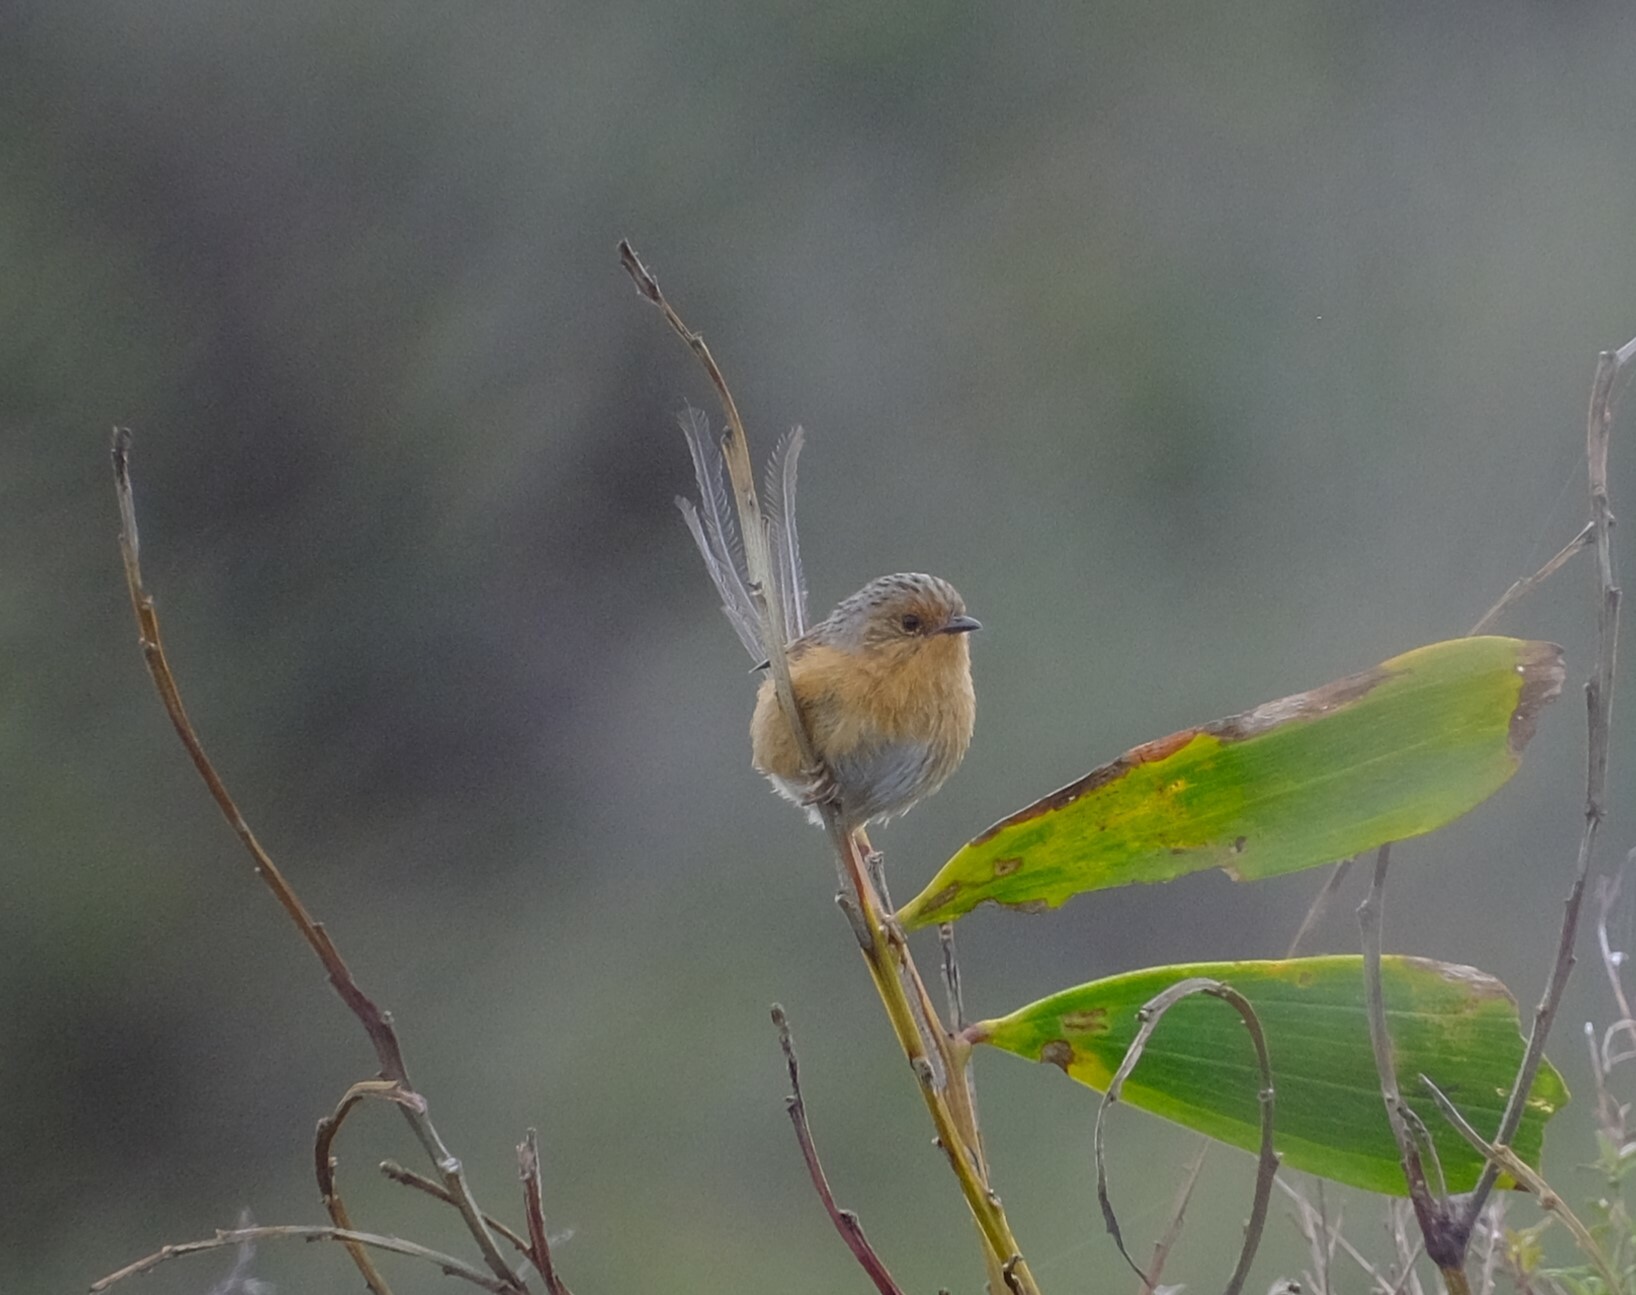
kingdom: Animalia
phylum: Chordata
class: Aves
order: Passeriformes
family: Maluridae
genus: Stipiturus
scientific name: Stipiturus malachurus
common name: Southern emu-wren
